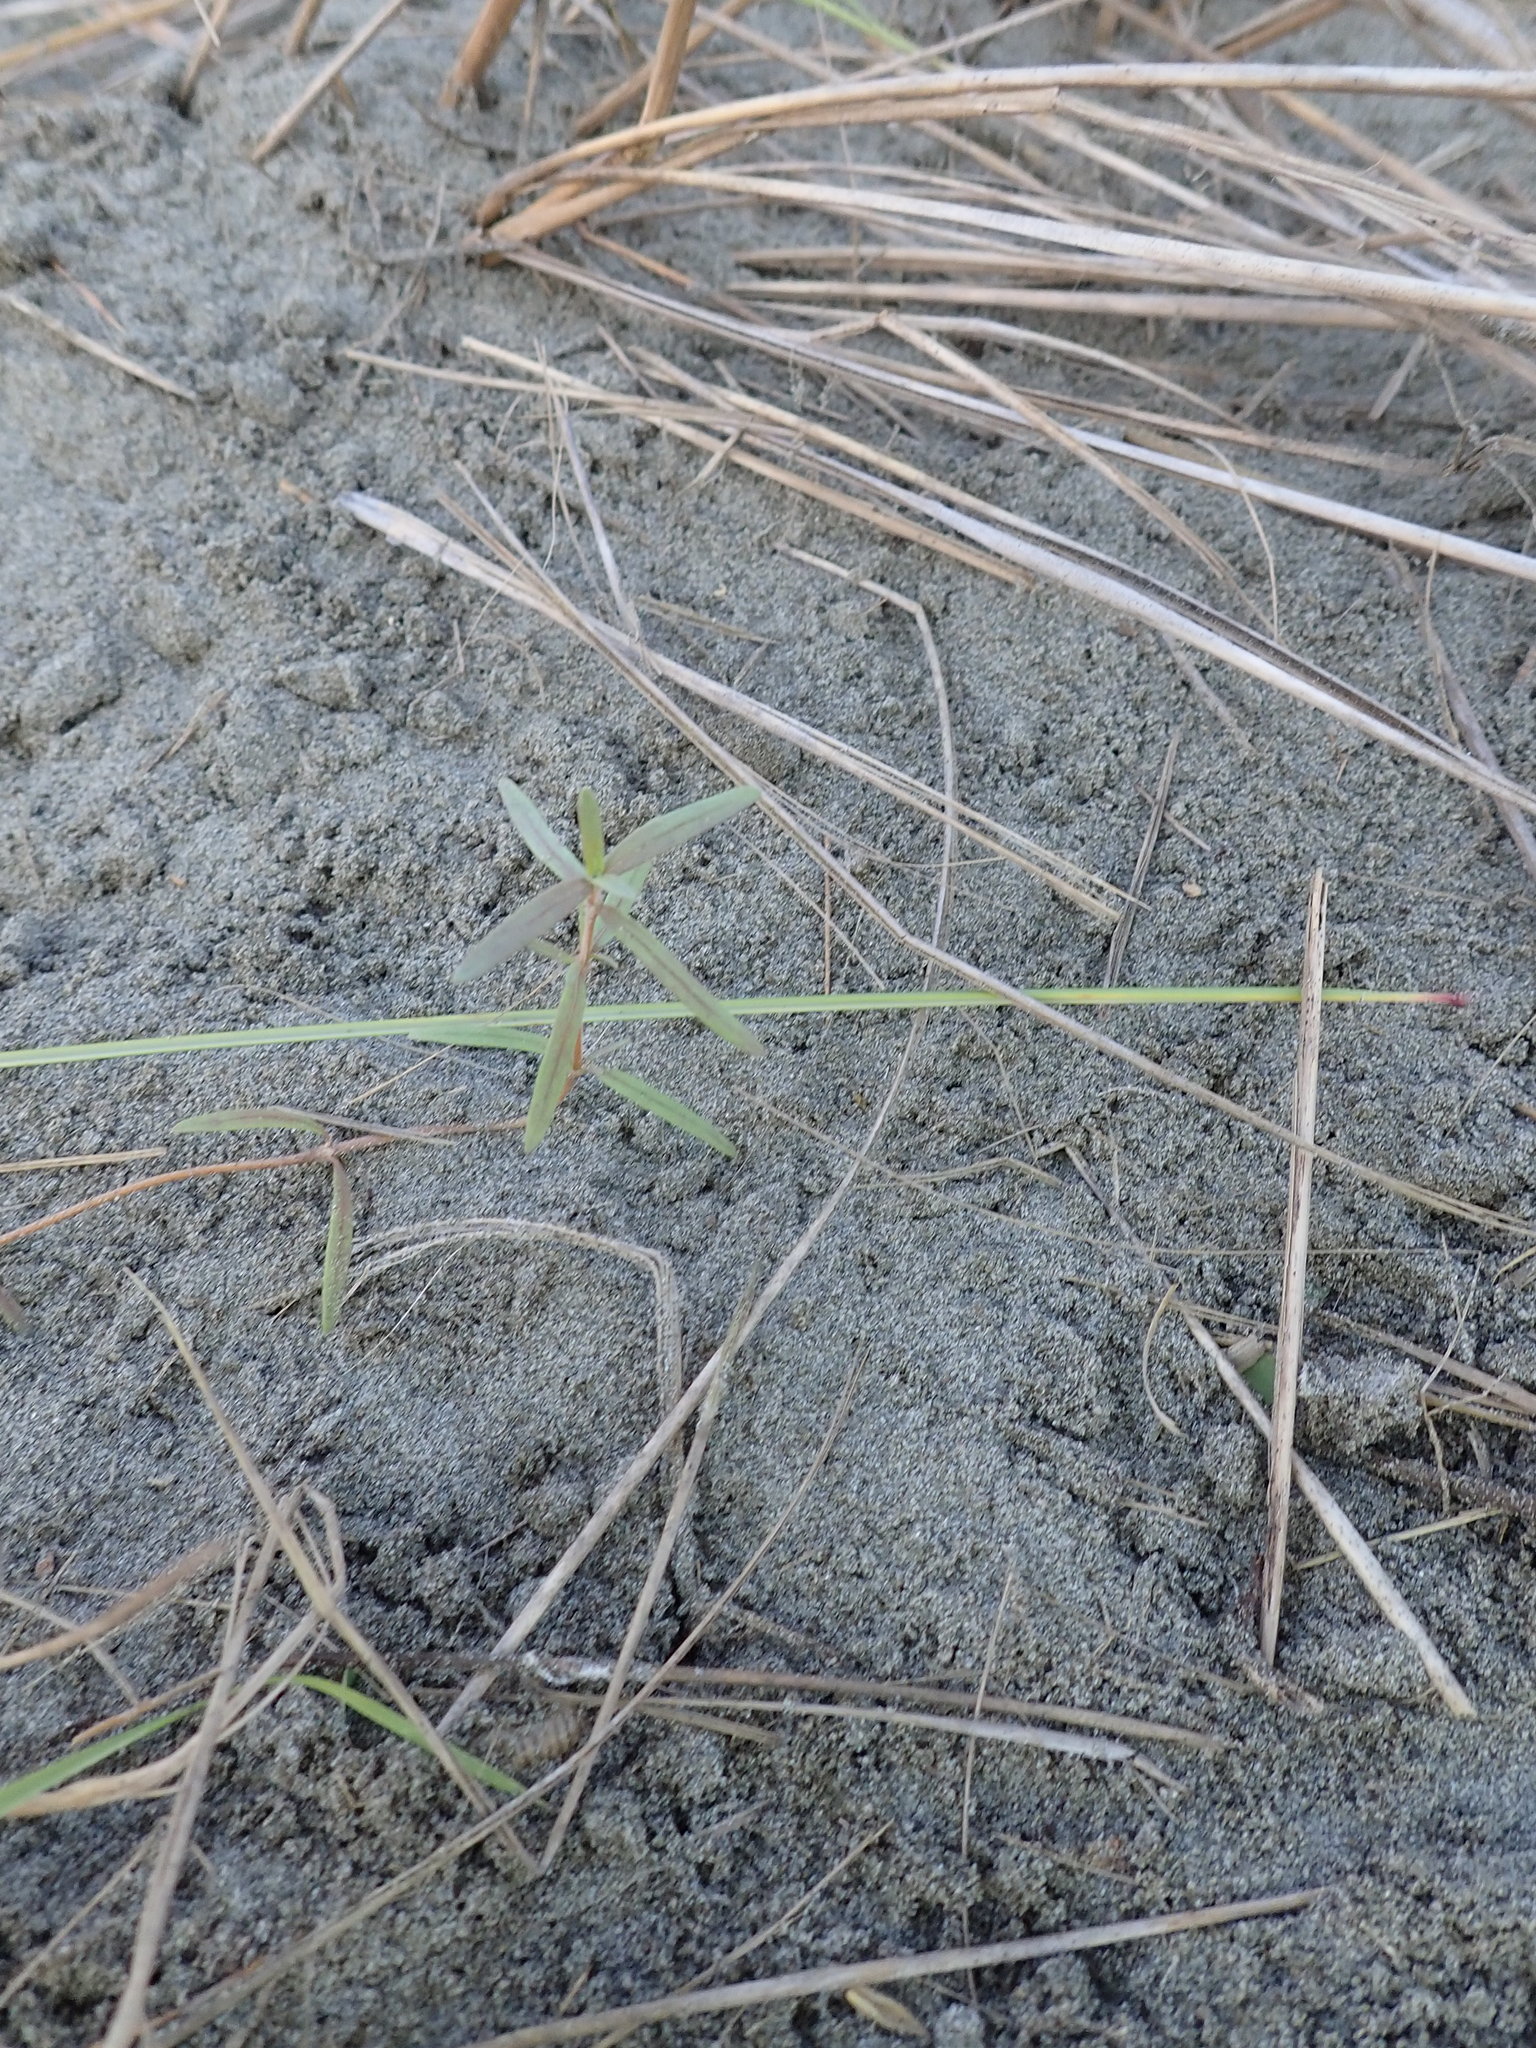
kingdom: Plantae
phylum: Tracheophyta
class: Magnoliopsida
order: Gentianales
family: Rubiaceae
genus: Coprosma
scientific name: Coprosma acerosa
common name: Sand coprosma
